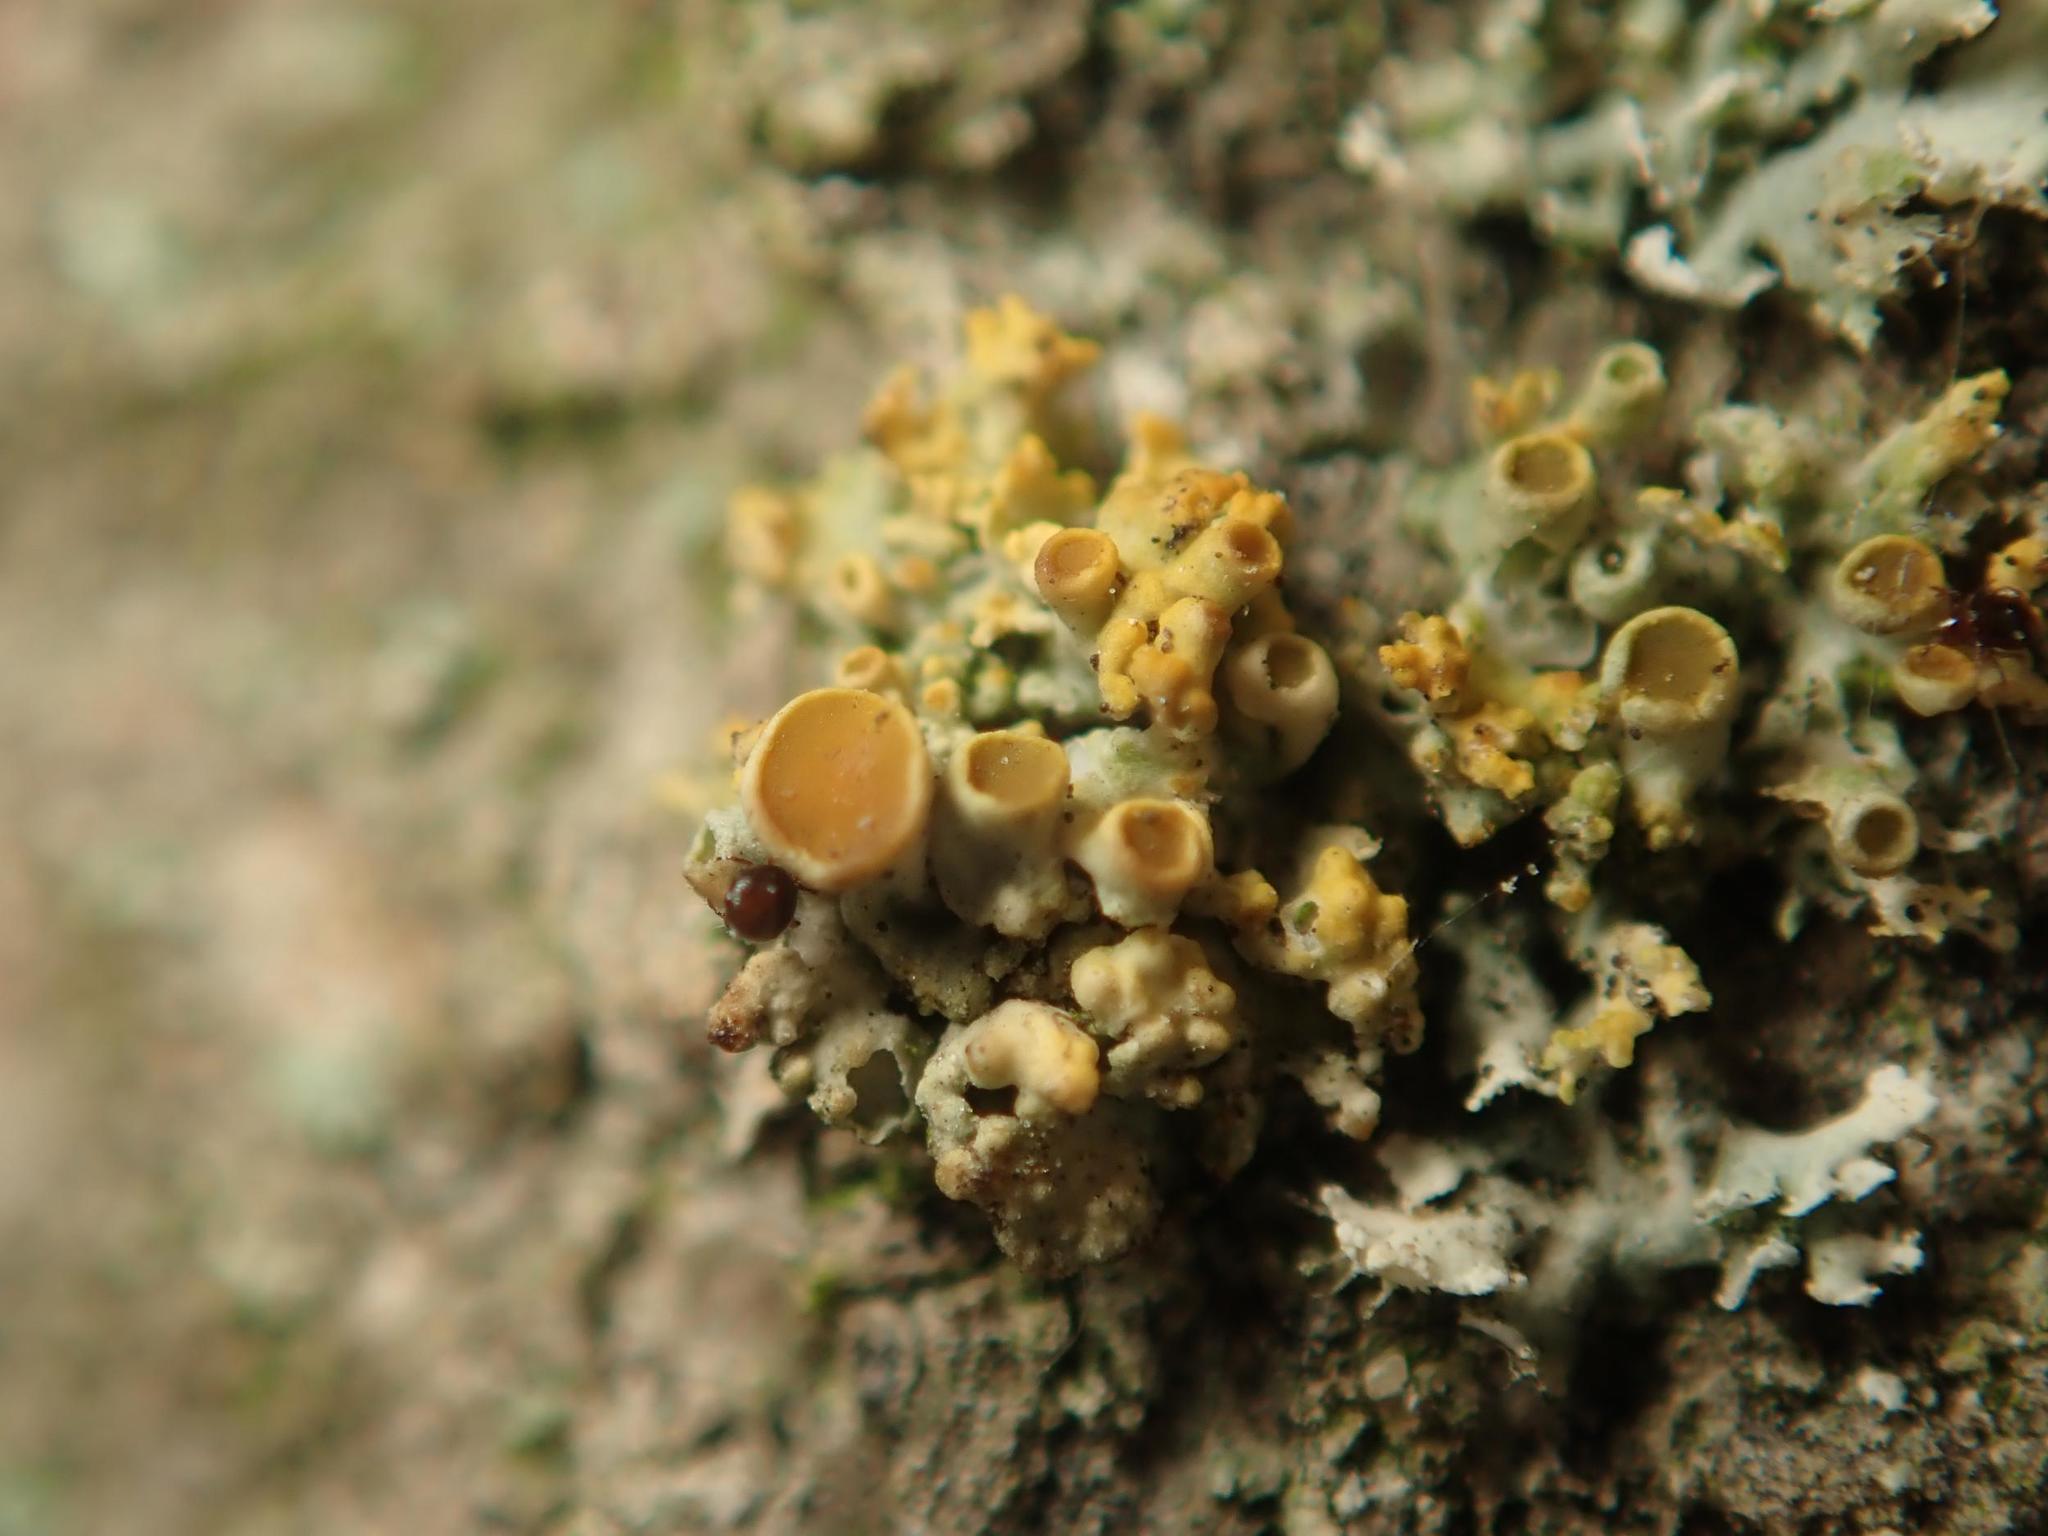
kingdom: Fungi
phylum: Ascomycota
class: Lecanoromycetes
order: Teloschistales
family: Teloschistaceae
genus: Polycauliona
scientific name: Polycauliona polycarpa
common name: Pin-cushion sunburst lichen
